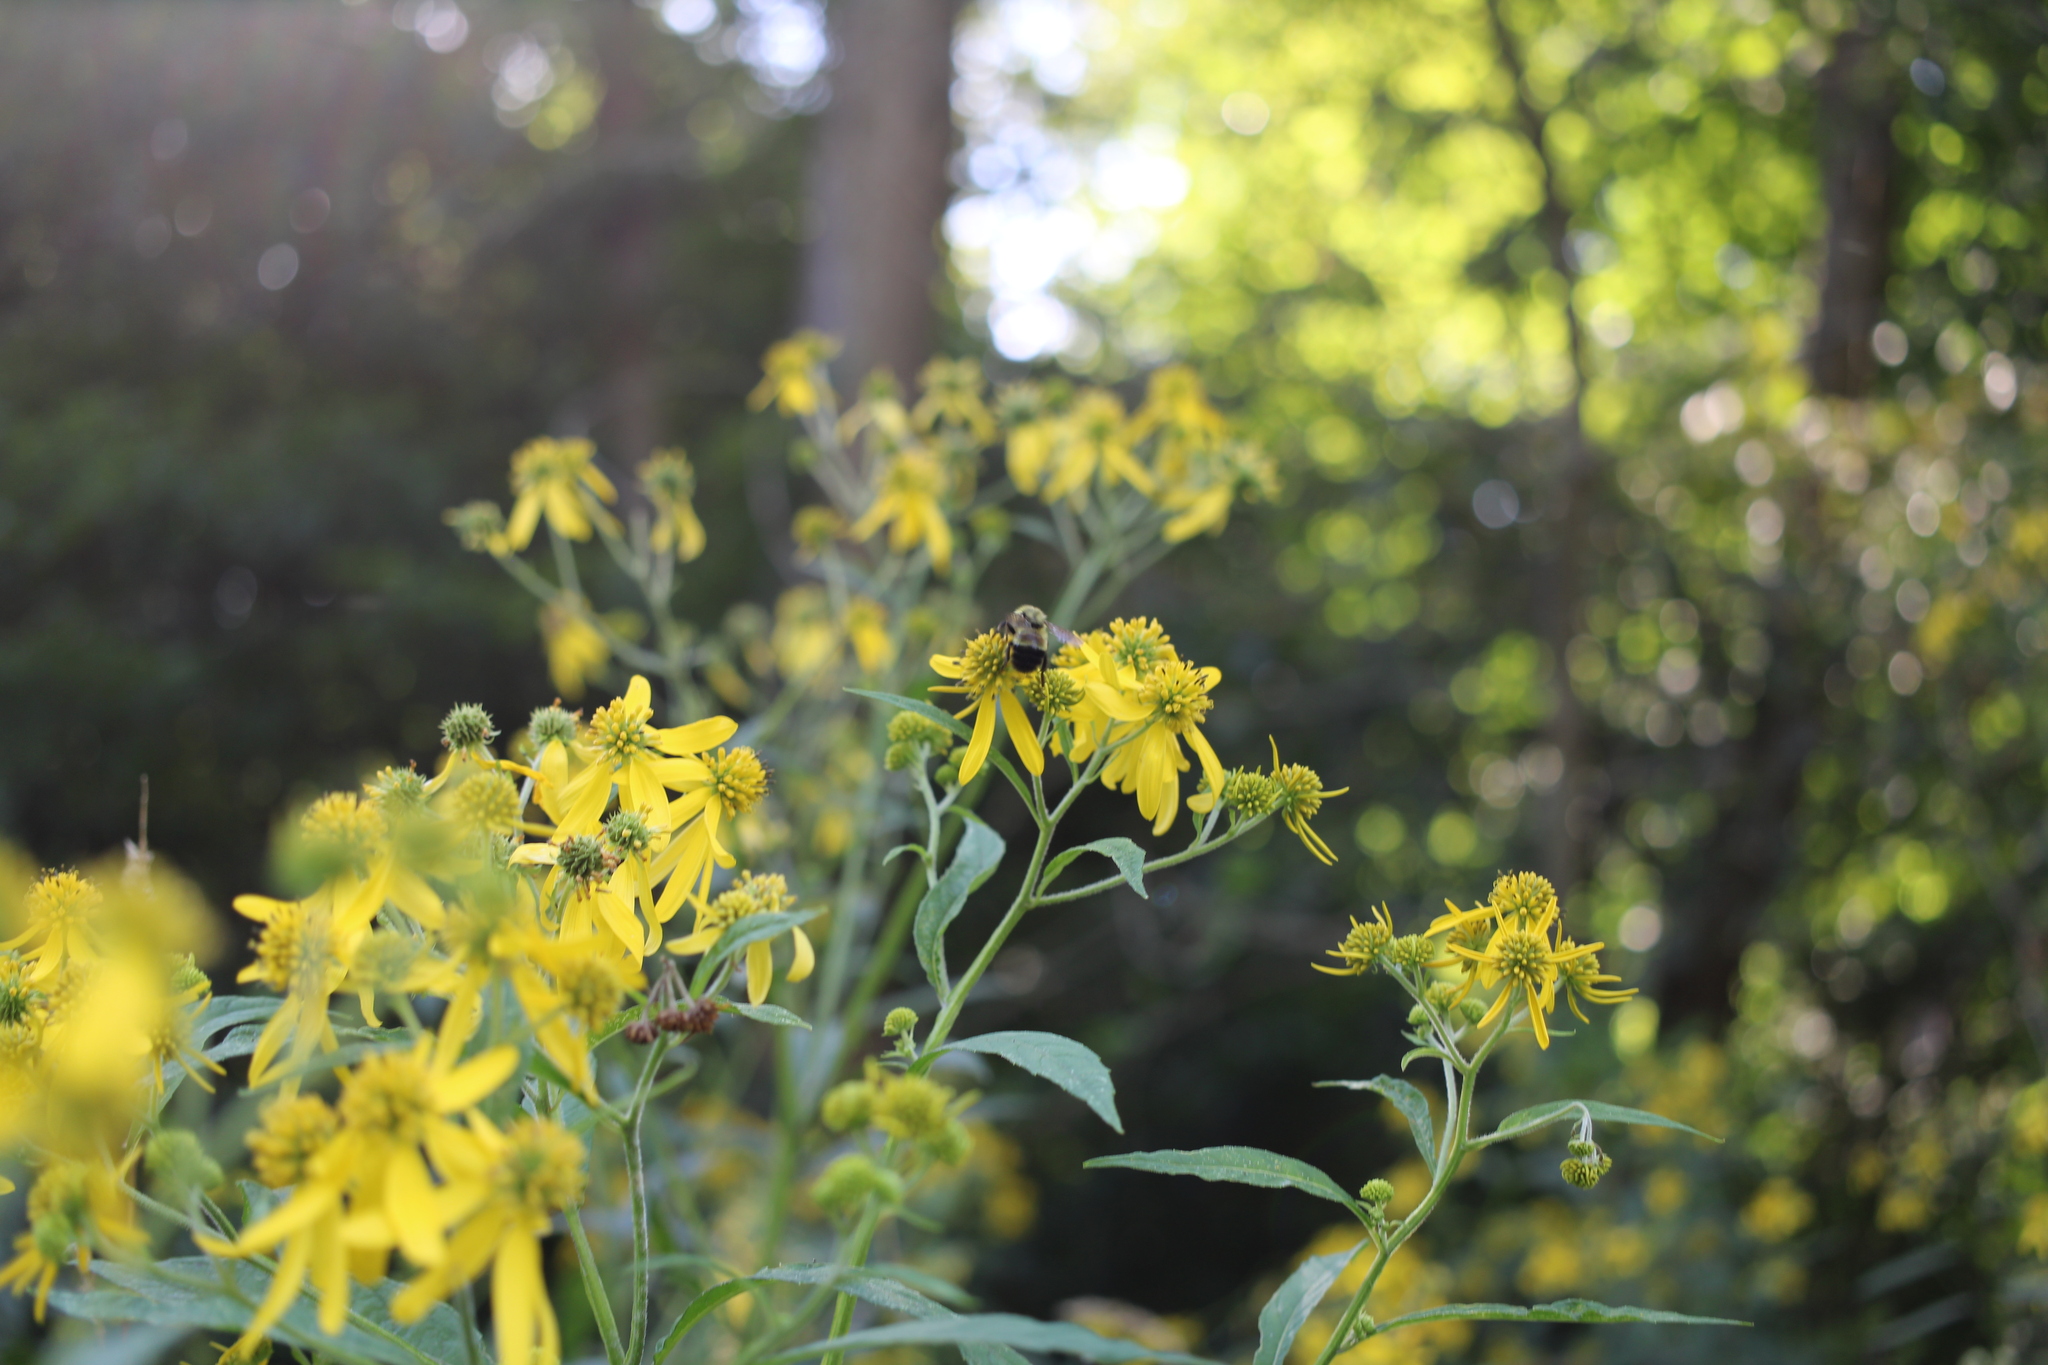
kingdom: Animalia
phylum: Arthropoda
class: Insecta
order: Hymenoptera
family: Apidae
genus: Bombus
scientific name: Bombus affinis
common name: Rusty patched bumble bee
